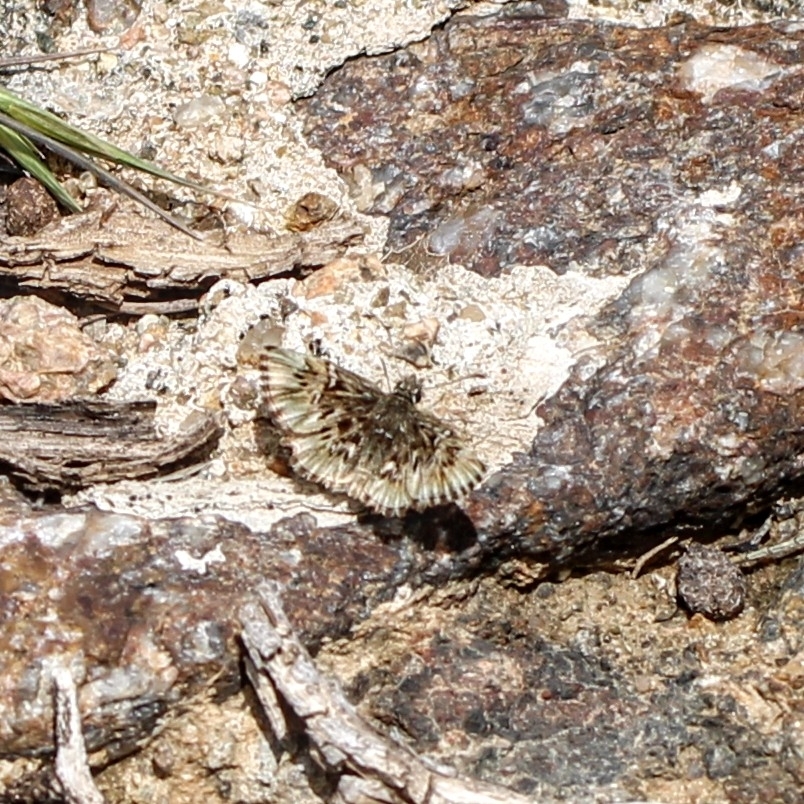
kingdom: Animalia
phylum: Arthropoda
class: Insecta
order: Lepidoptera
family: Hesperiidae
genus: Celotes
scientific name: Celotes nessus
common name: Common streaky-skipper
